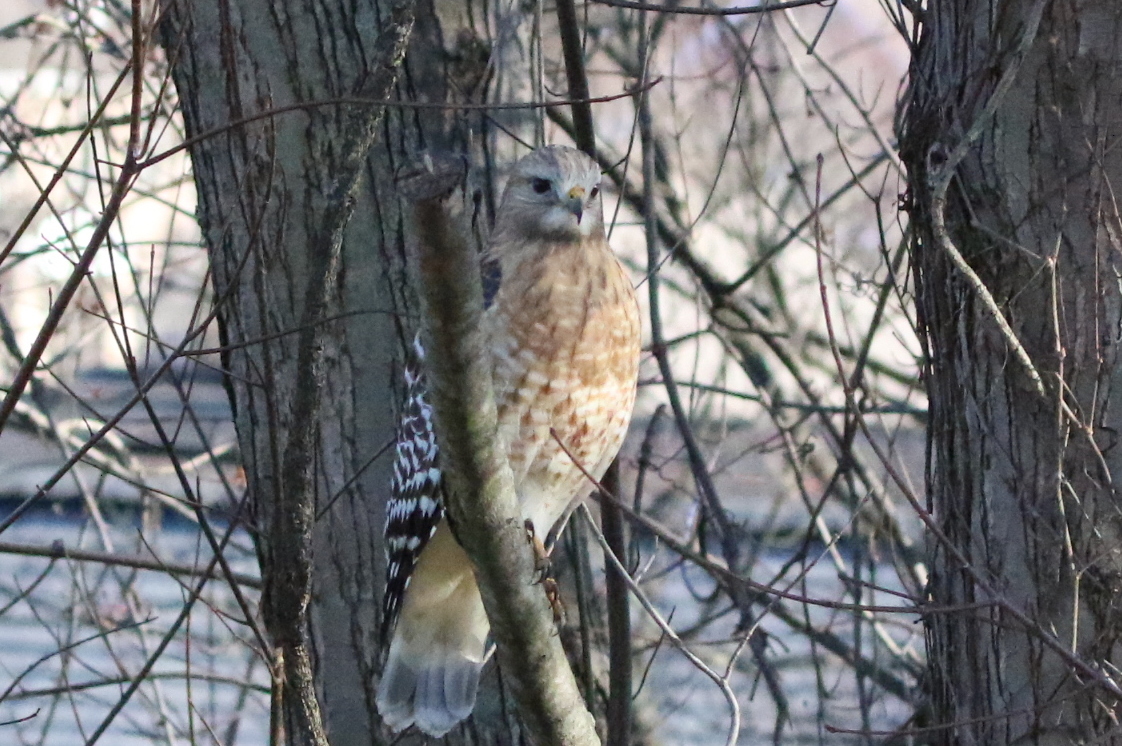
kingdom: Animalia
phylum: Chordata
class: Aves
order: Accipitriformes
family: Accipitridae
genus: Buteo
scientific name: Buteo lineatus
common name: Red-shouldered hawk
